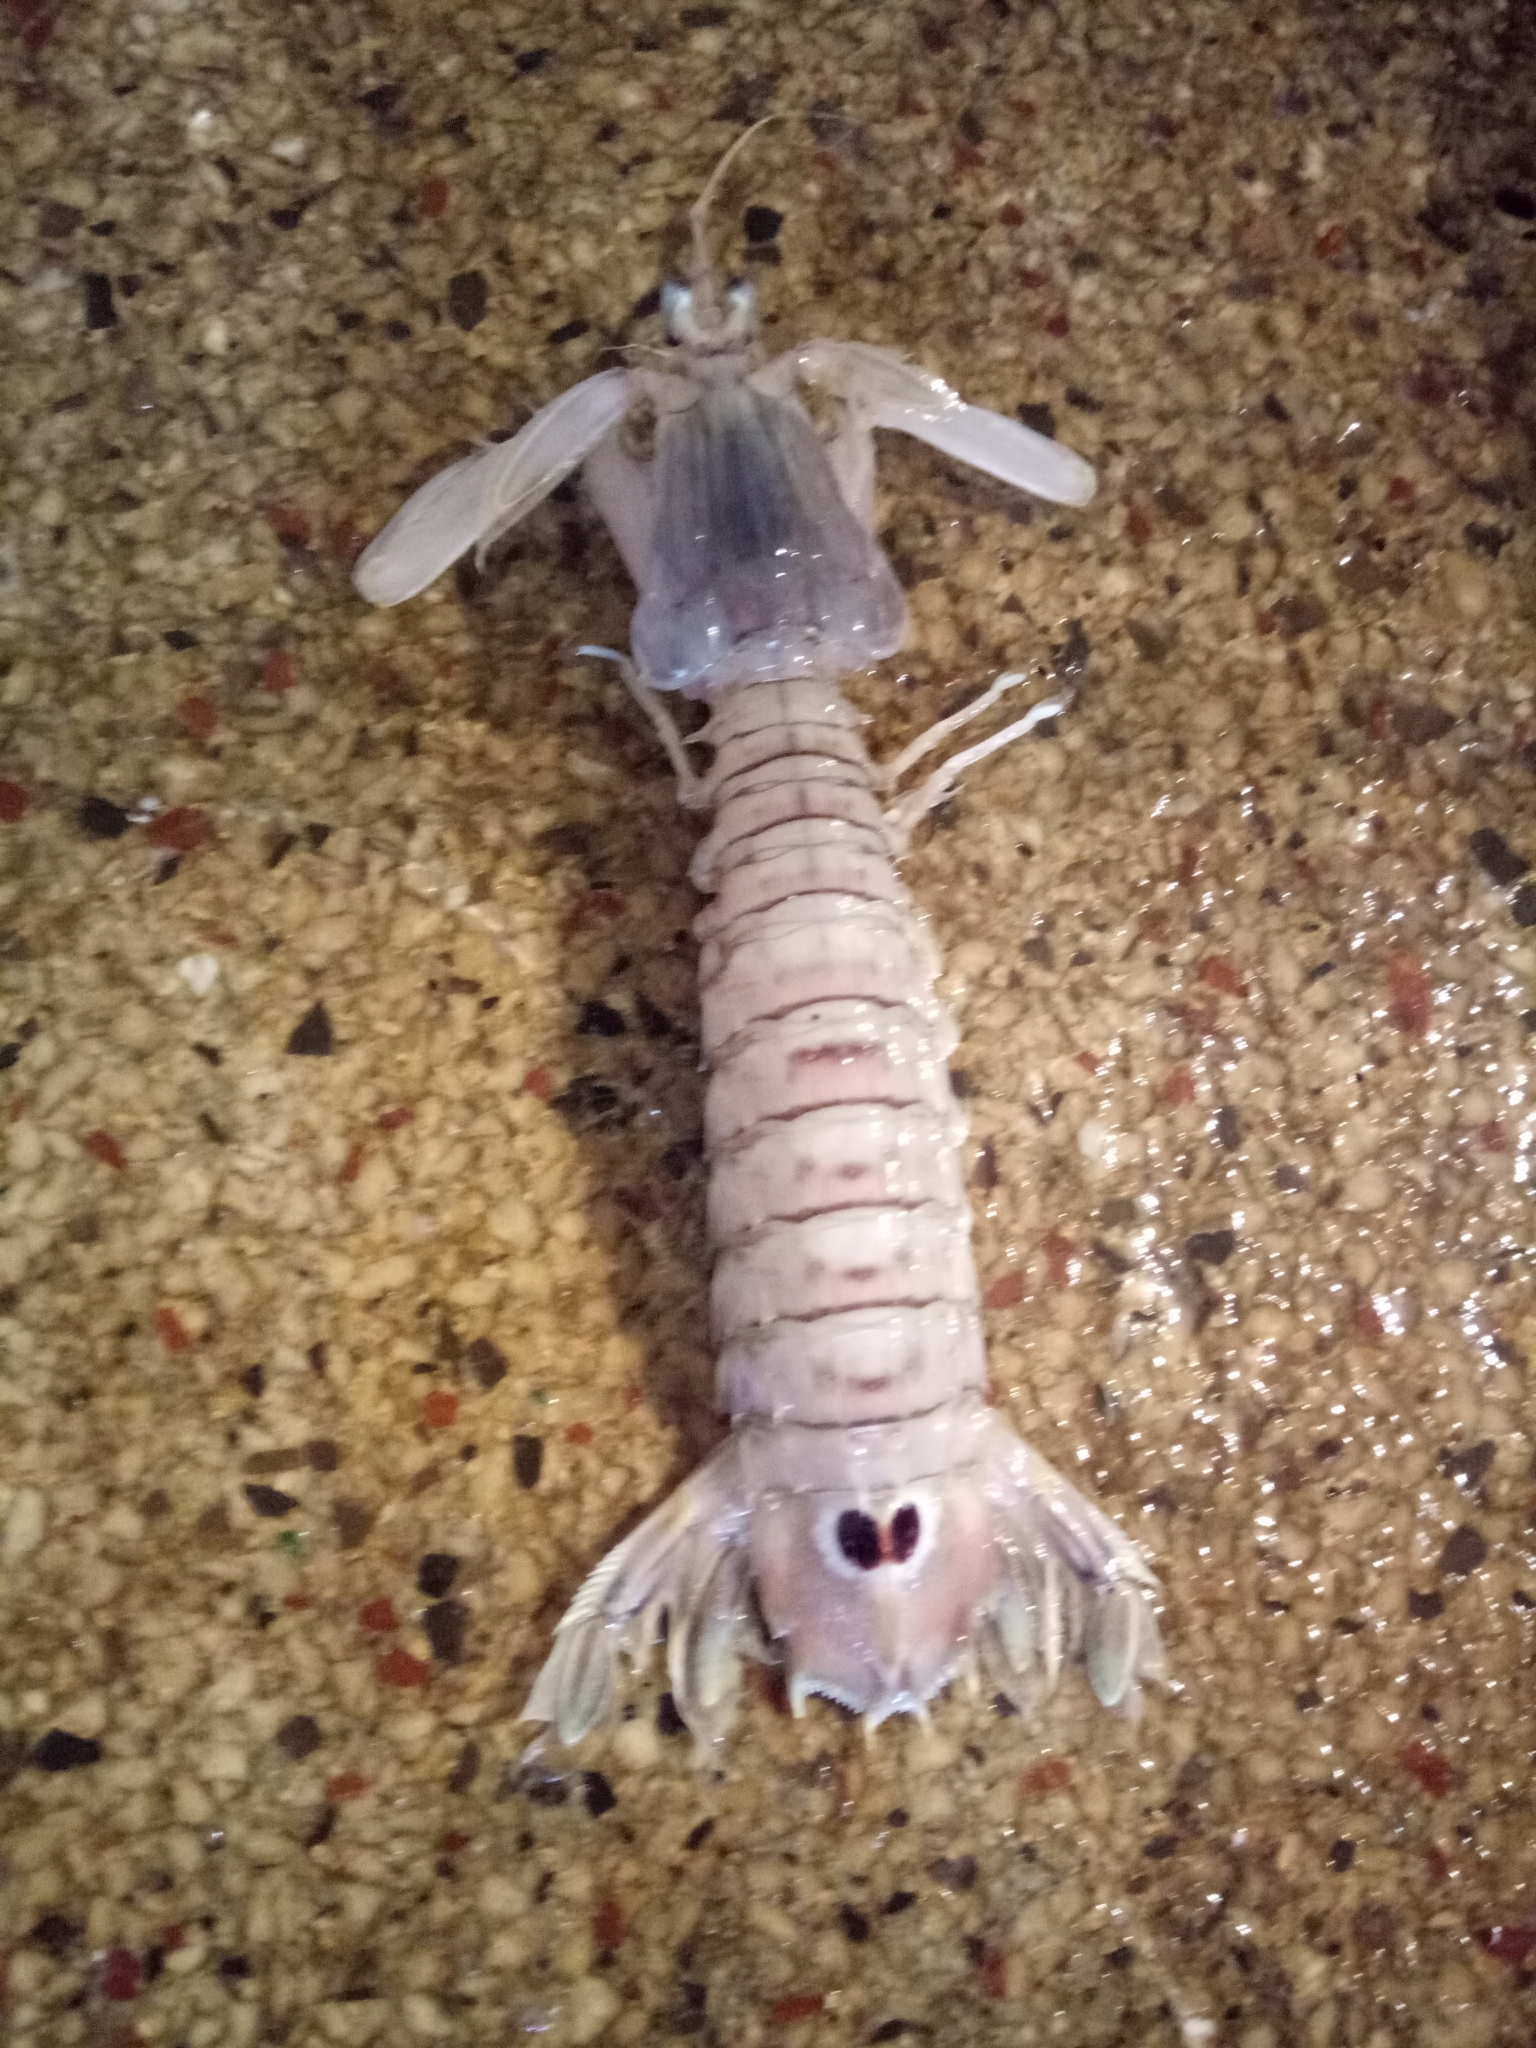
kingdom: Animalia
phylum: Arthropoda
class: Malacostraca
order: Stomatopoda
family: Squillidae
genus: Squilla
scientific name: Squilla mantis
